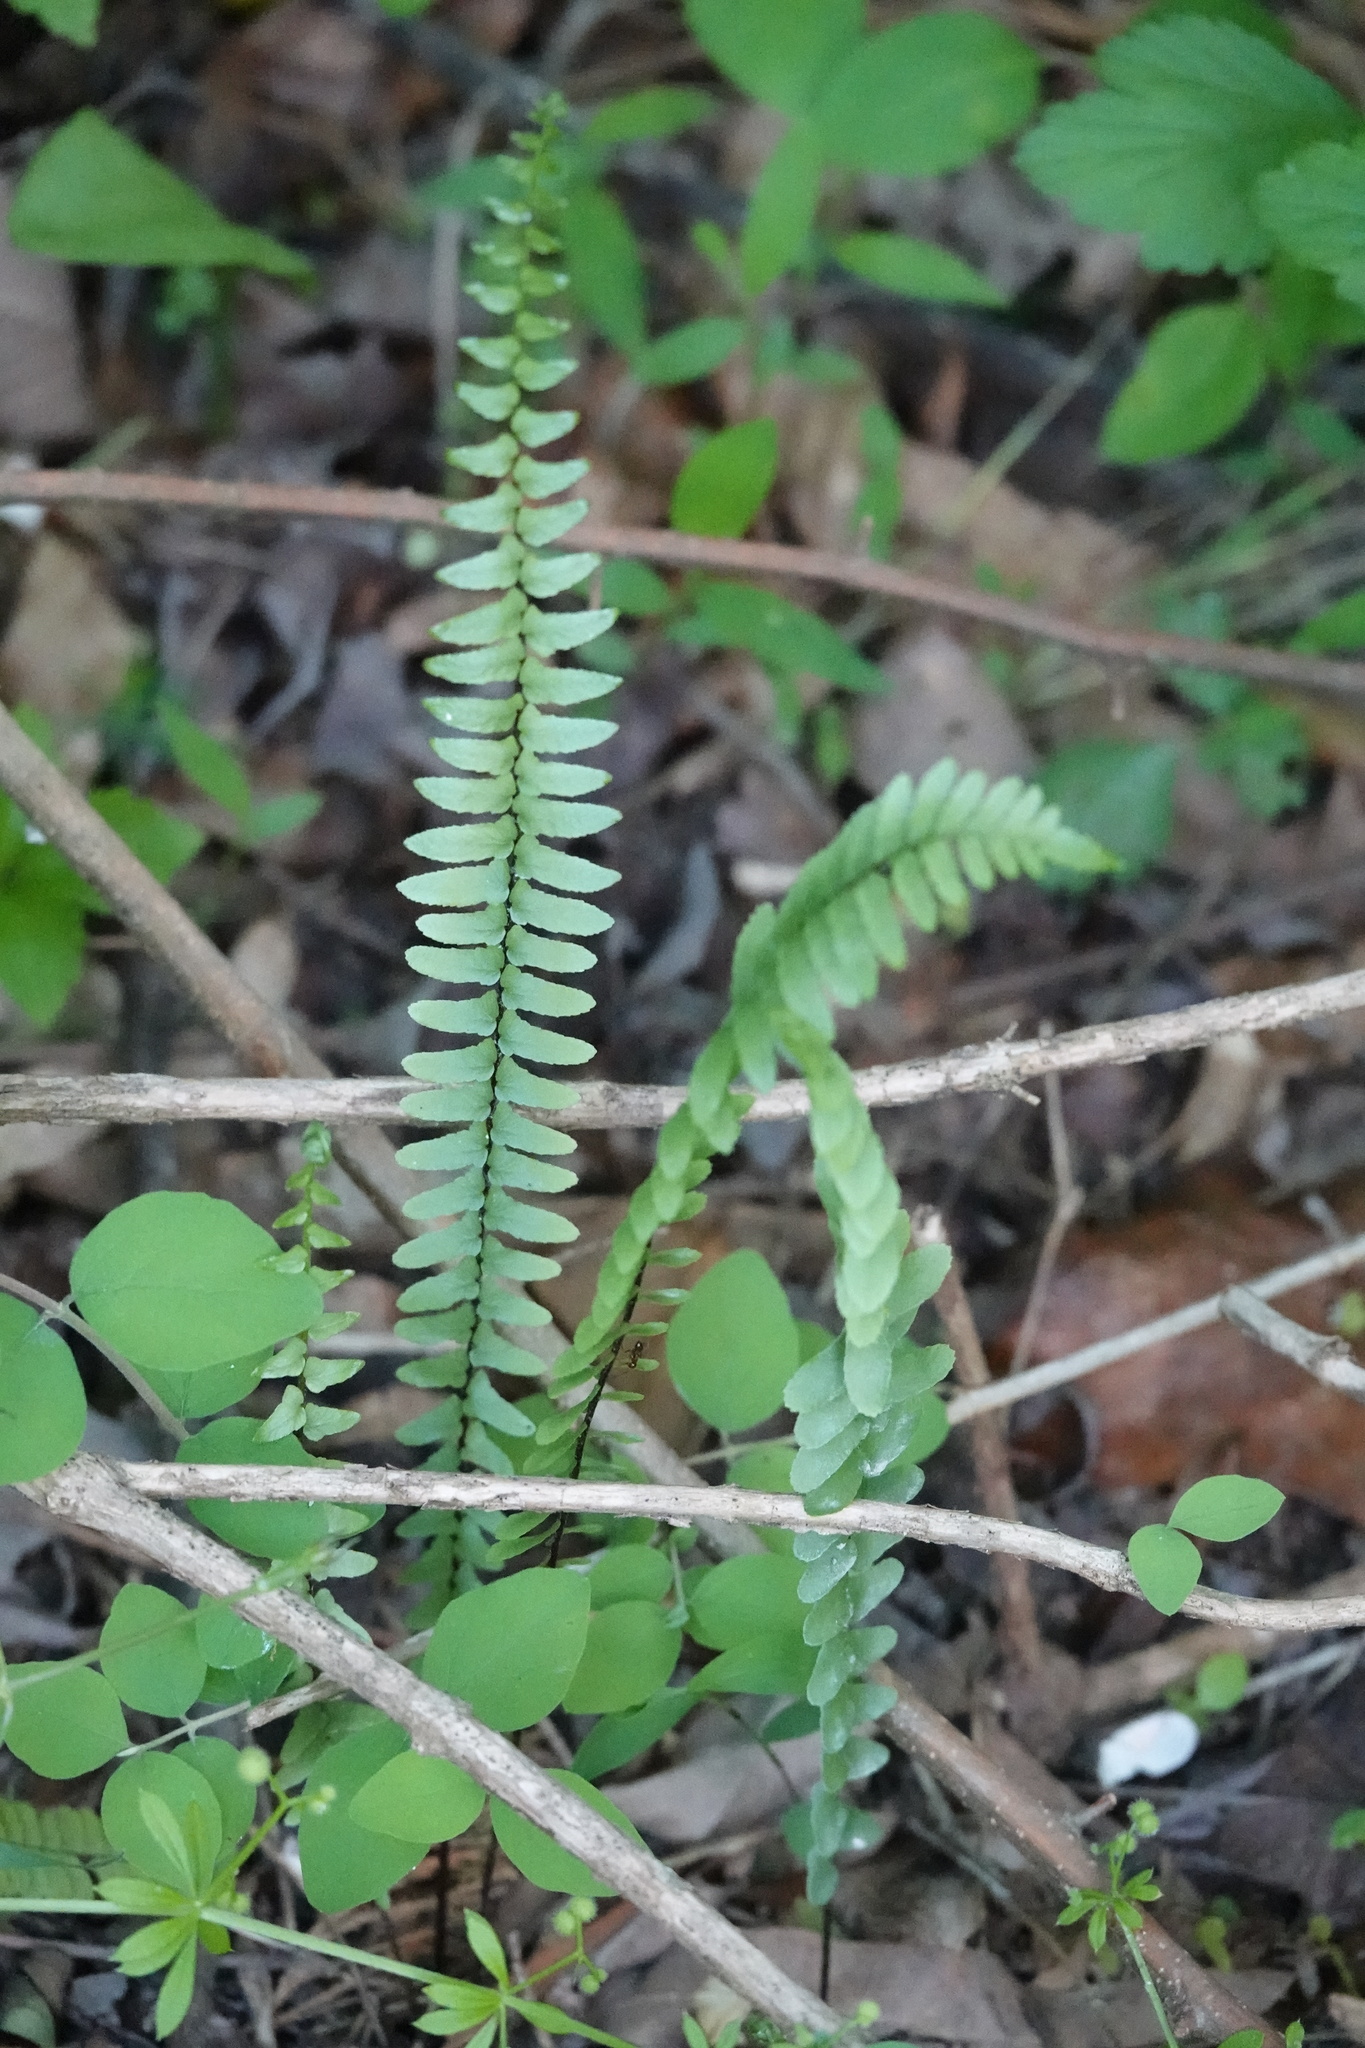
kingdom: Plantae
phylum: Tracheophyta
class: Polypodiopsida
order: Polypodiales
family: Aspleniaceae
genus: Asplenium
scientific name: Asplenium platyneuron
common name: Ebony spleenwort
